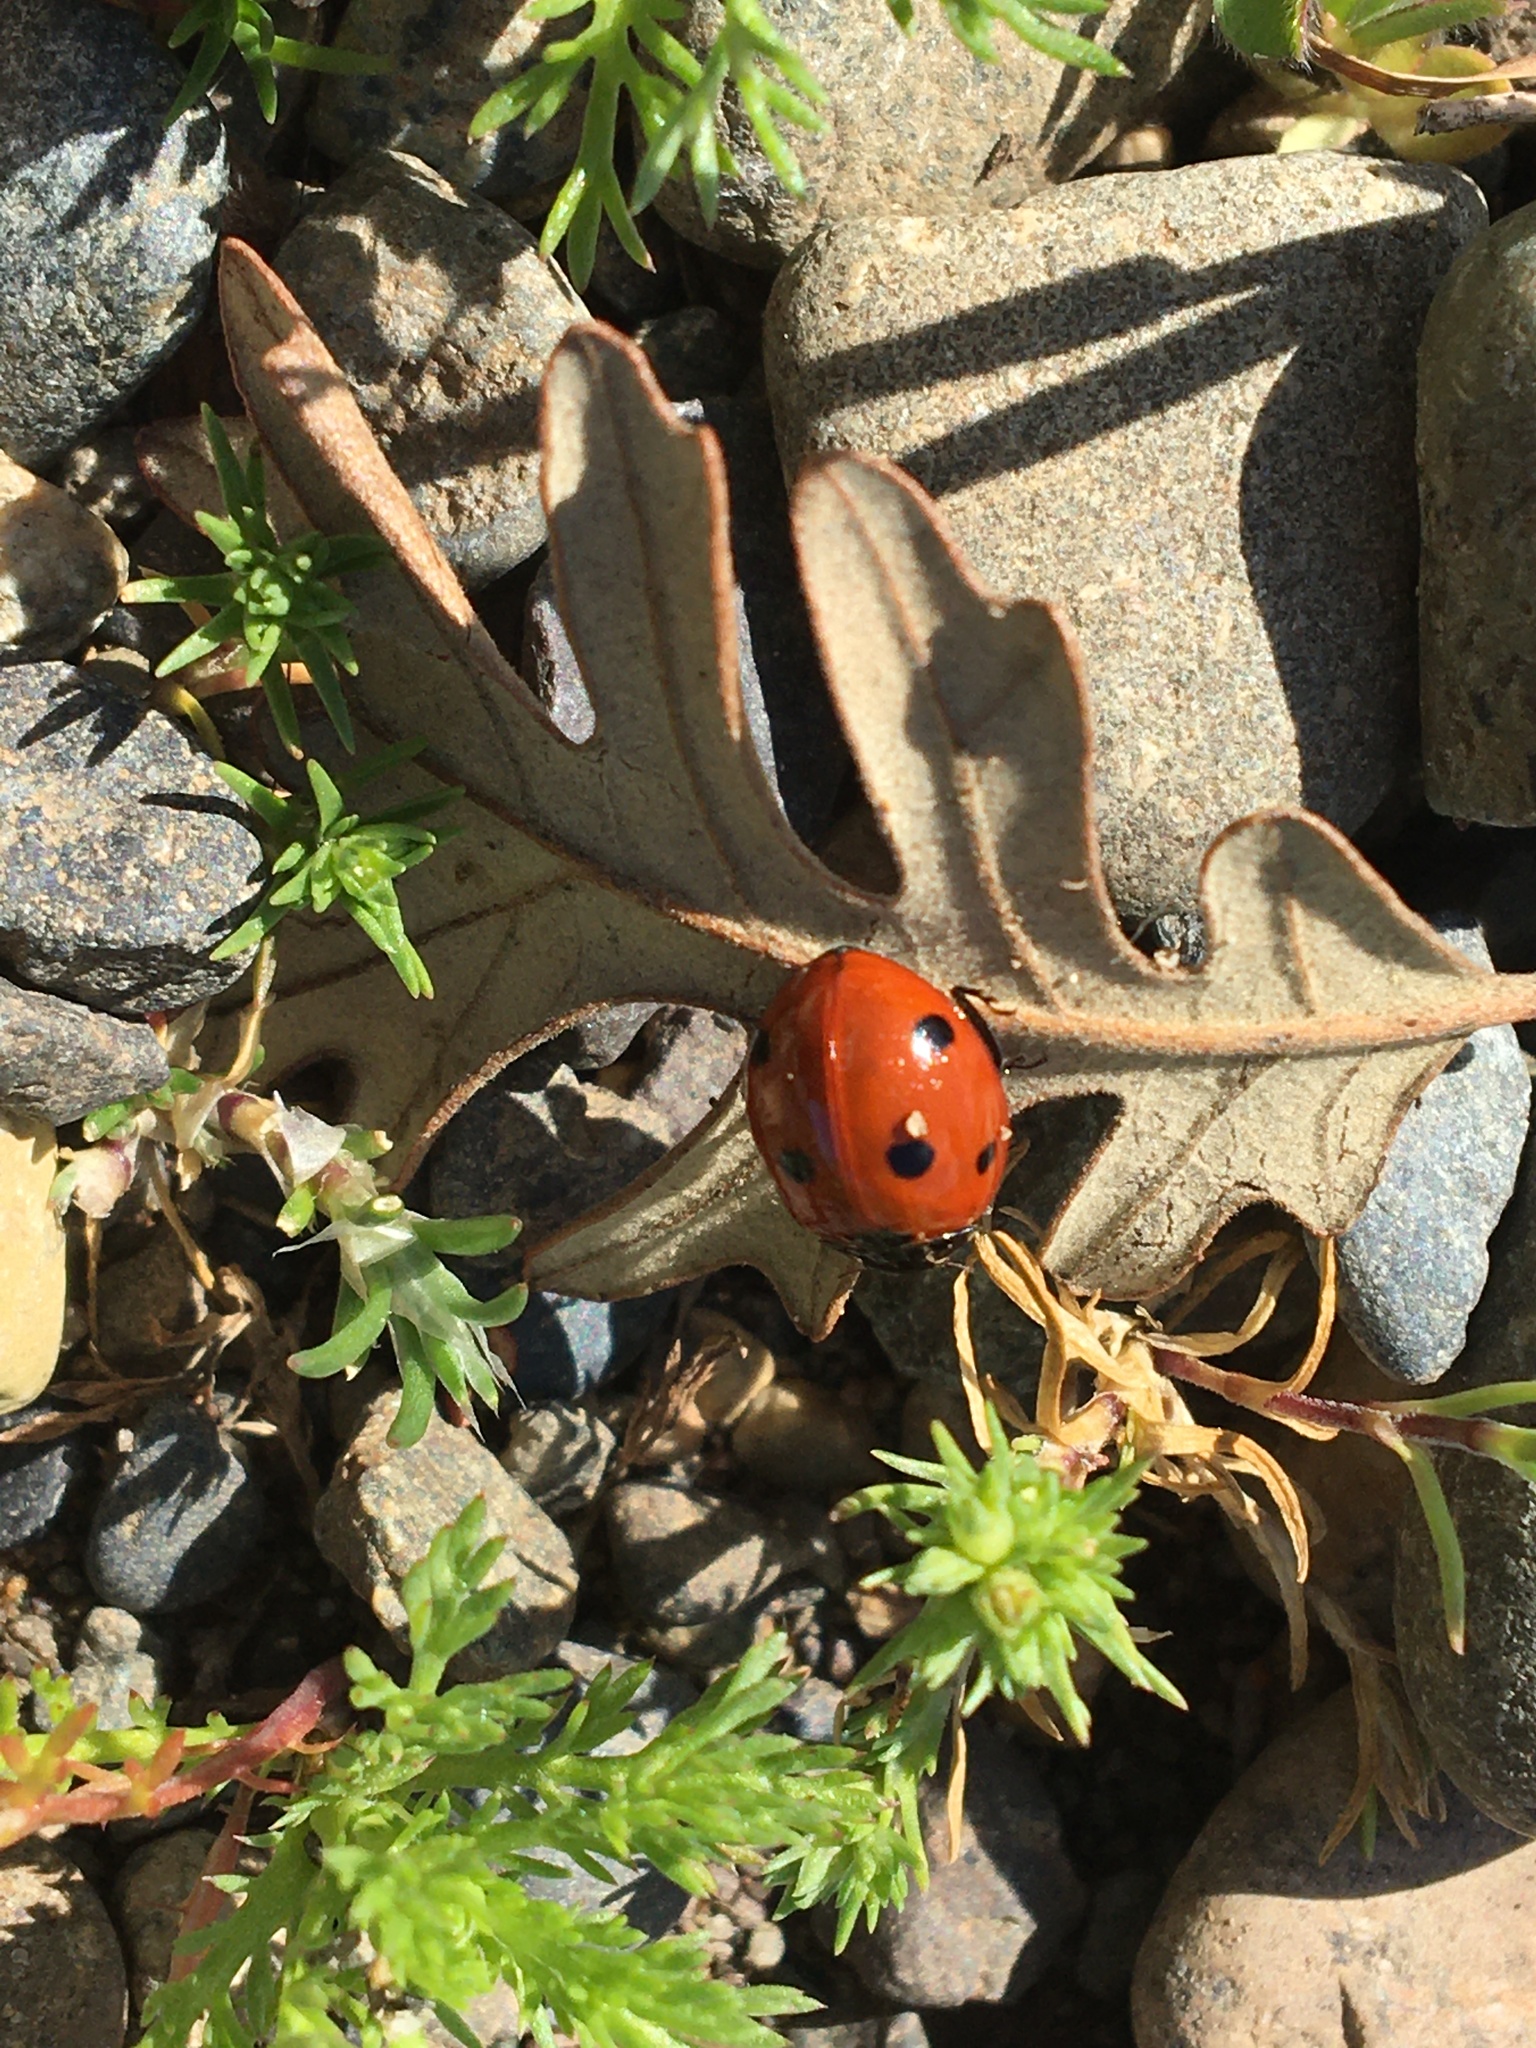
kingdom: Animalia
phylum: Arthropoda
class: Insecta
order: Coleoptera
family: Coccinellidae
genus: Coccinella
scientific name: Coccinella septempunctata
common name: Sevenspotted lady beetle
